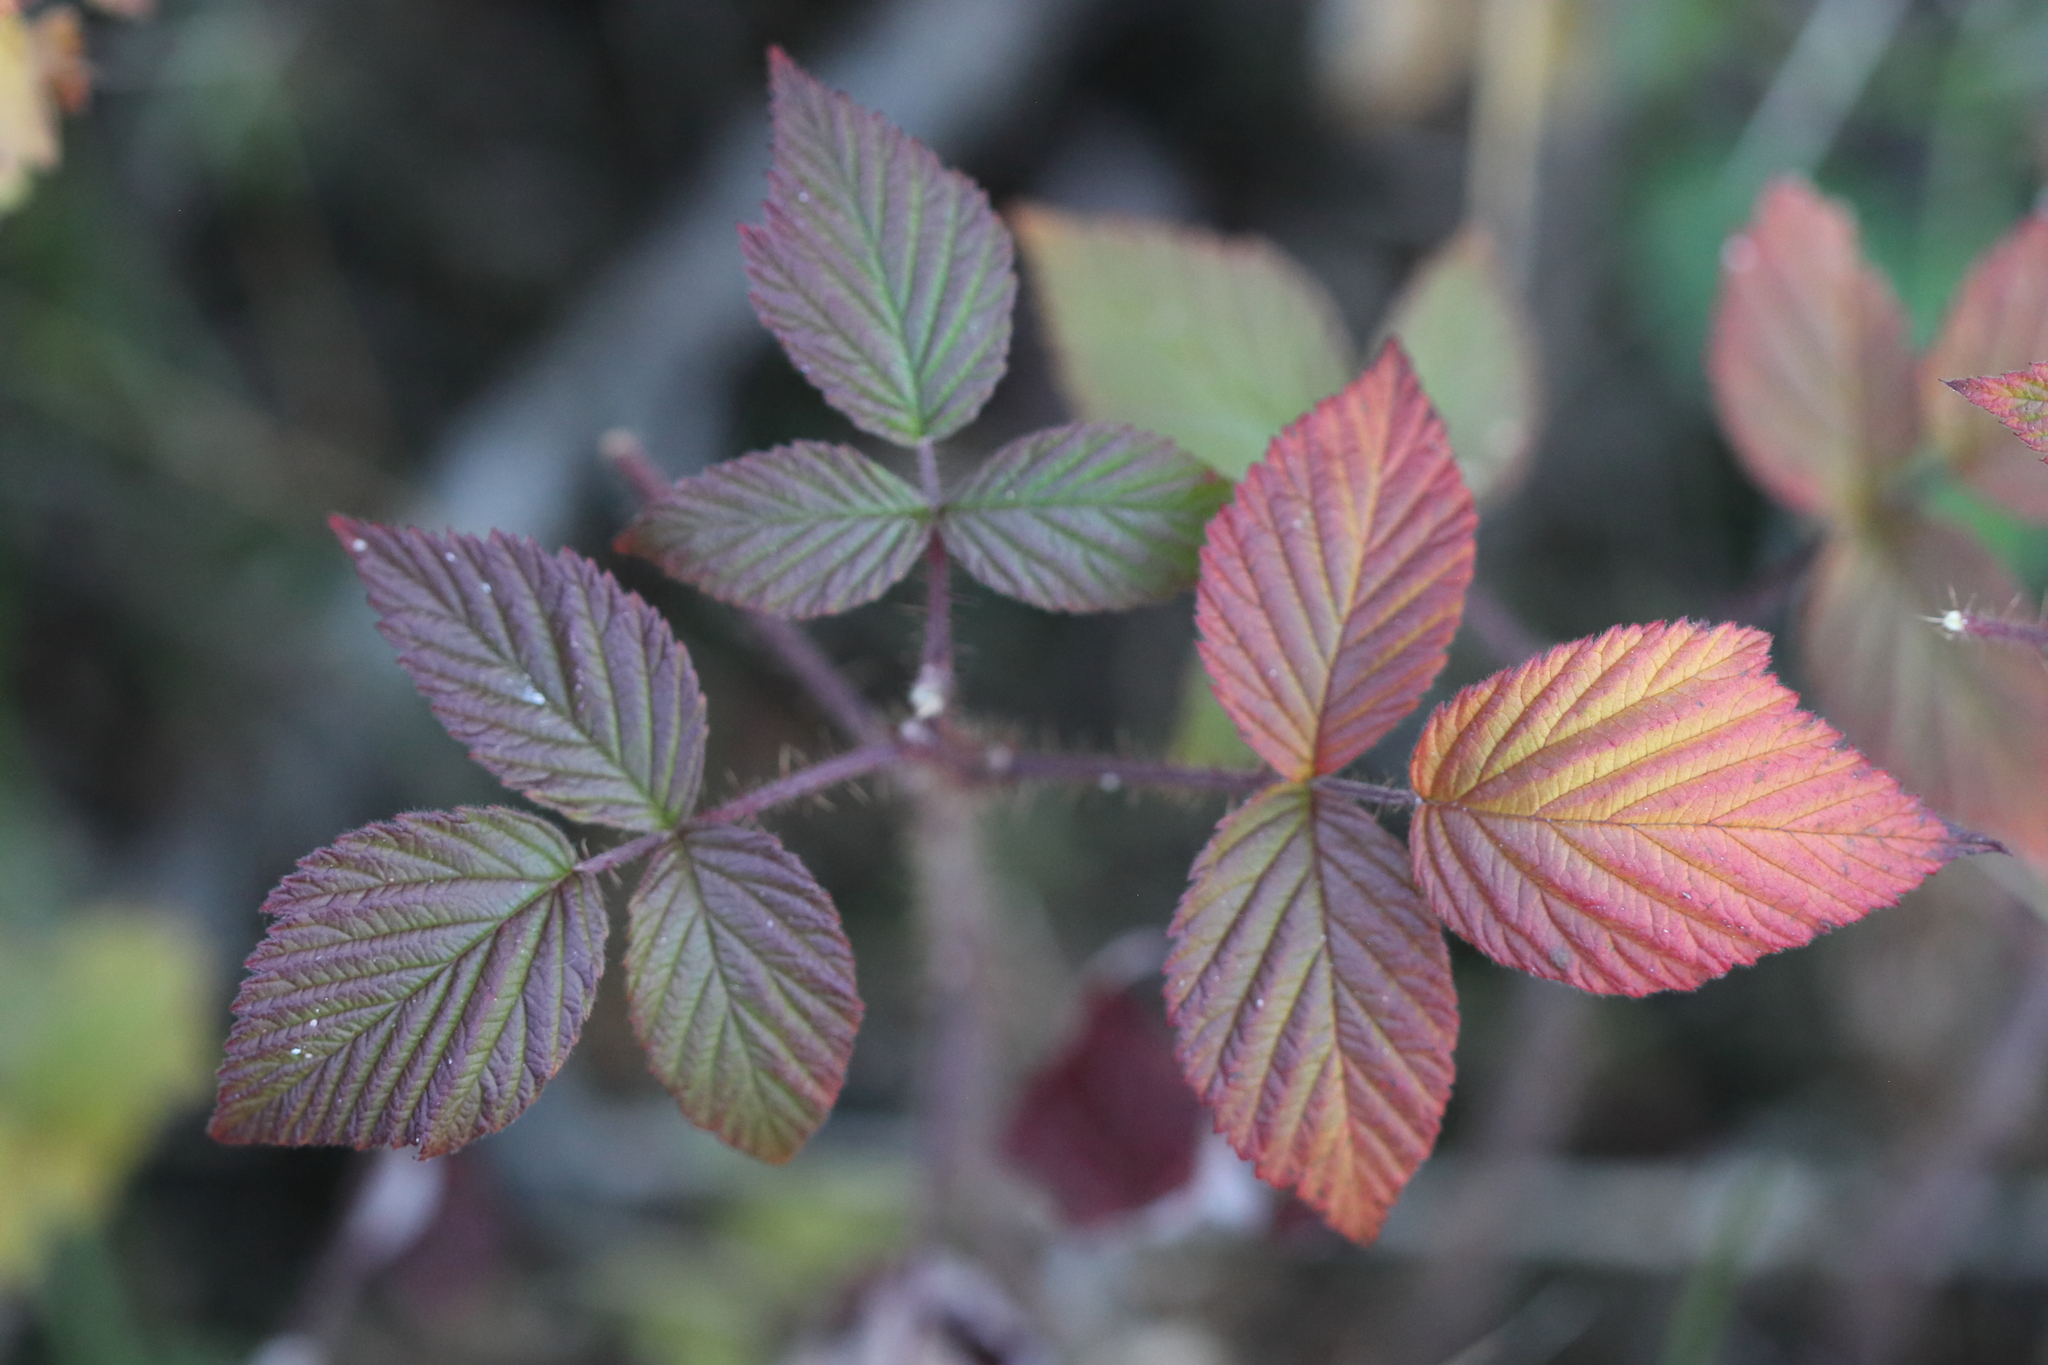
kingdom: Plantae
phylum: Tracheophyta
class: Magnoliopsida
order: Rosales
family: Rosaceae
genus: Rubus
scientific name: Rubus idaeus
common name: Raspberry
